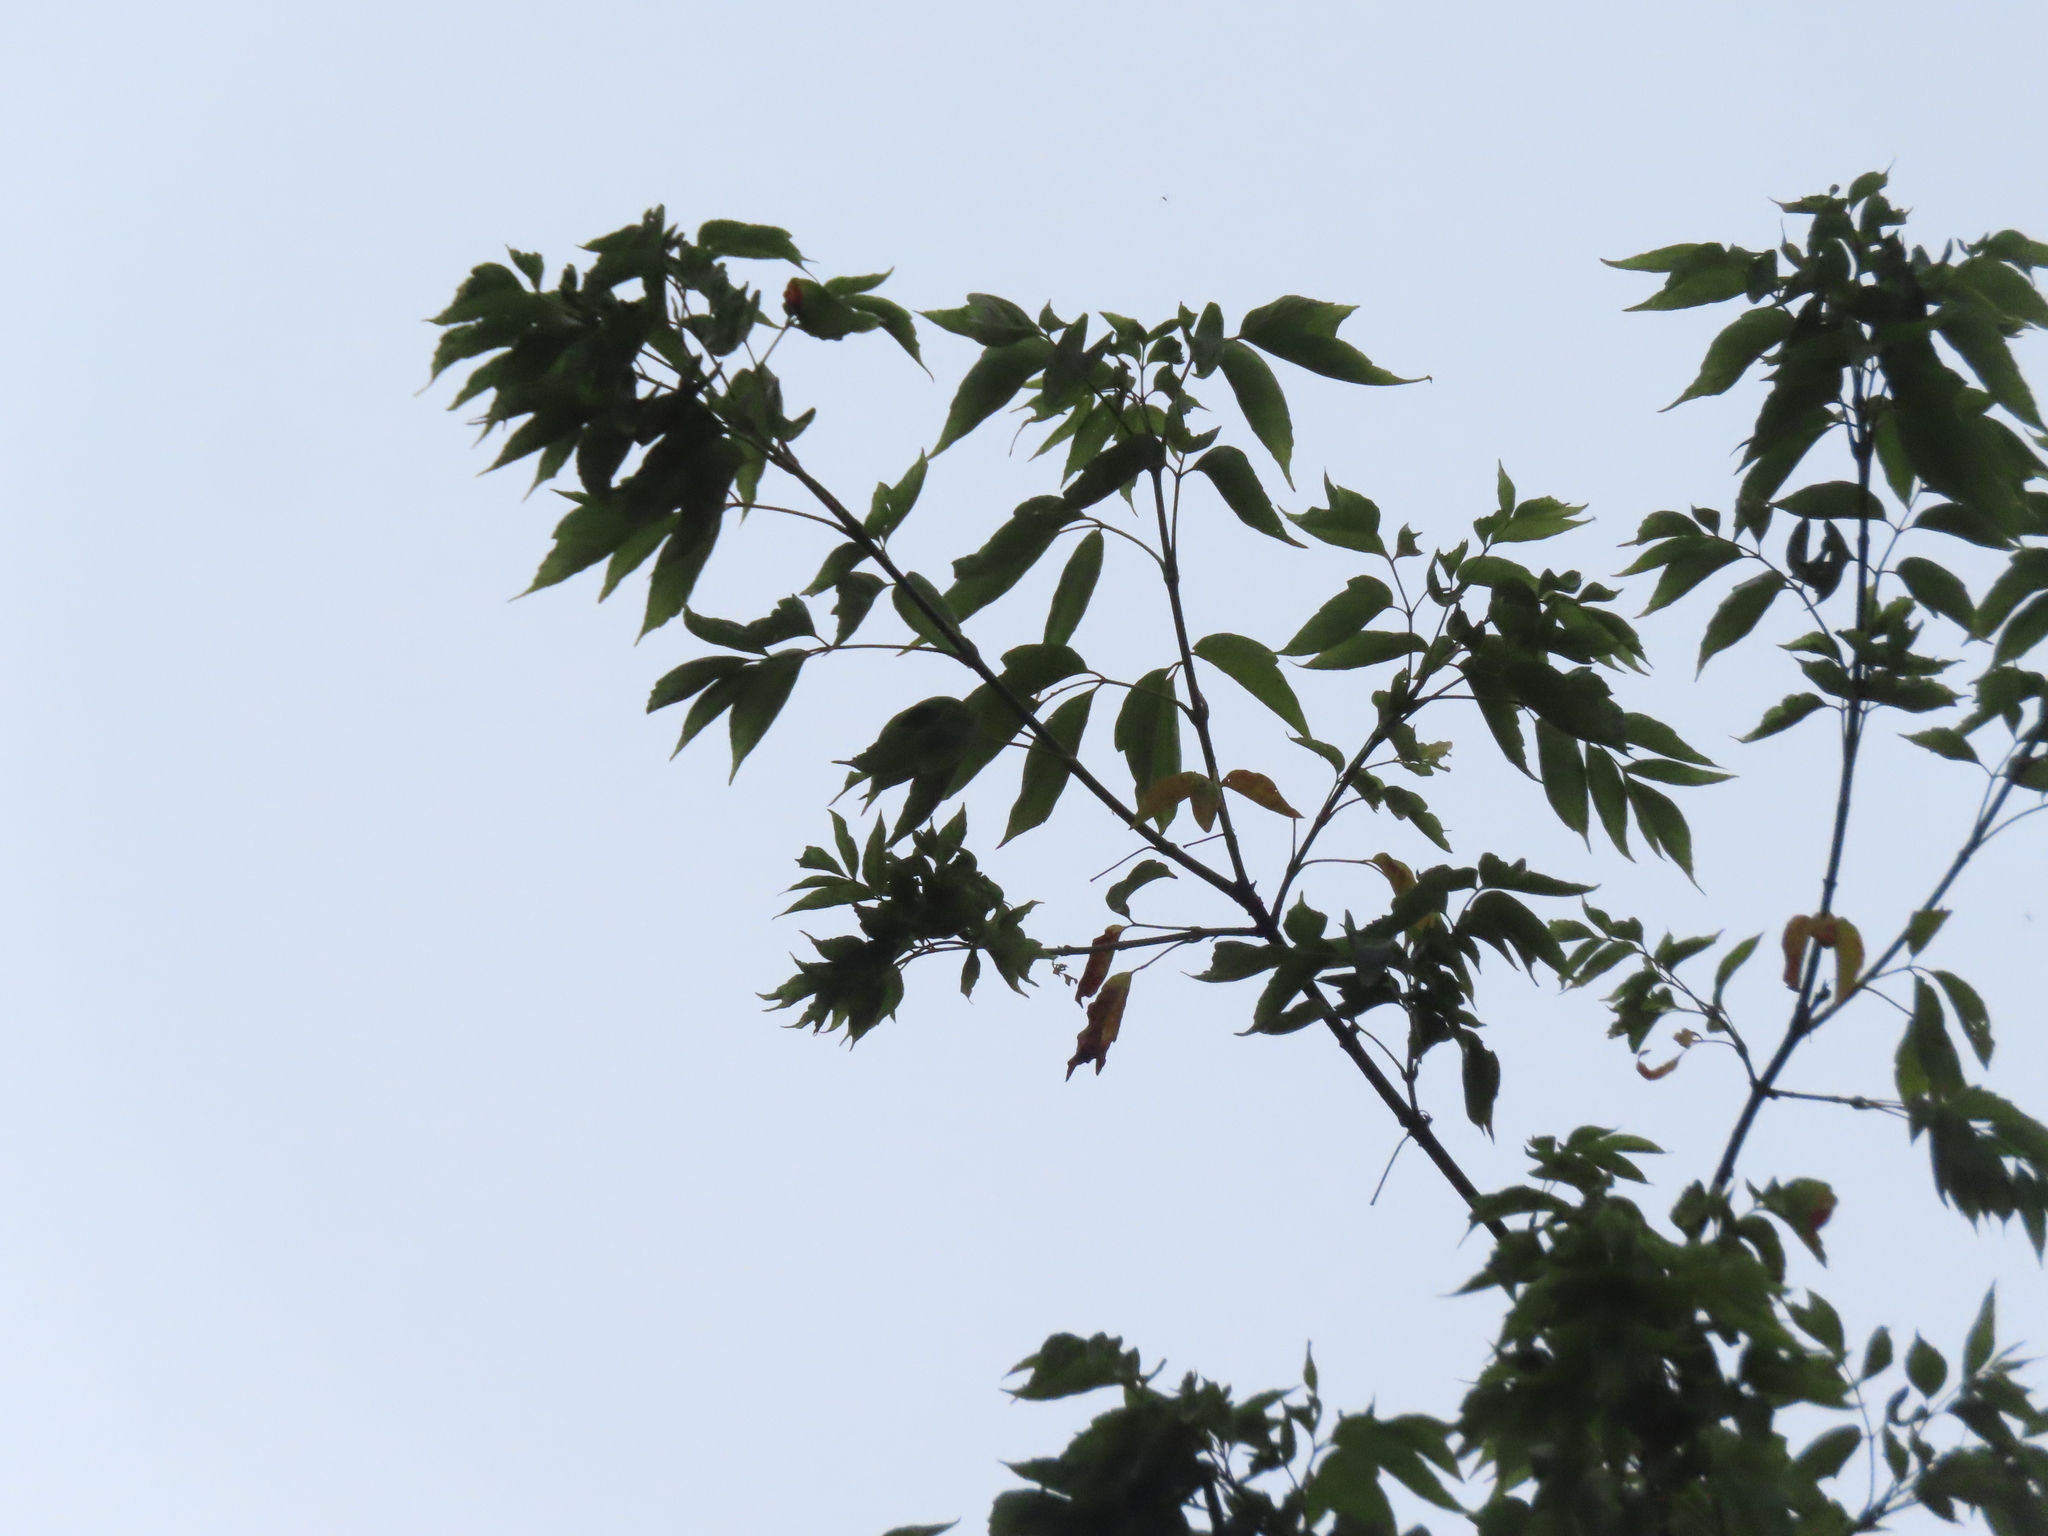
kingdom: Plantae
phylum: Tracheophyta
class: Magnoliopsida
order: Sapindales
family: Sapindaceae
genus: Acer
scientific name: Acer negundo
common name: Ashleaf maple
